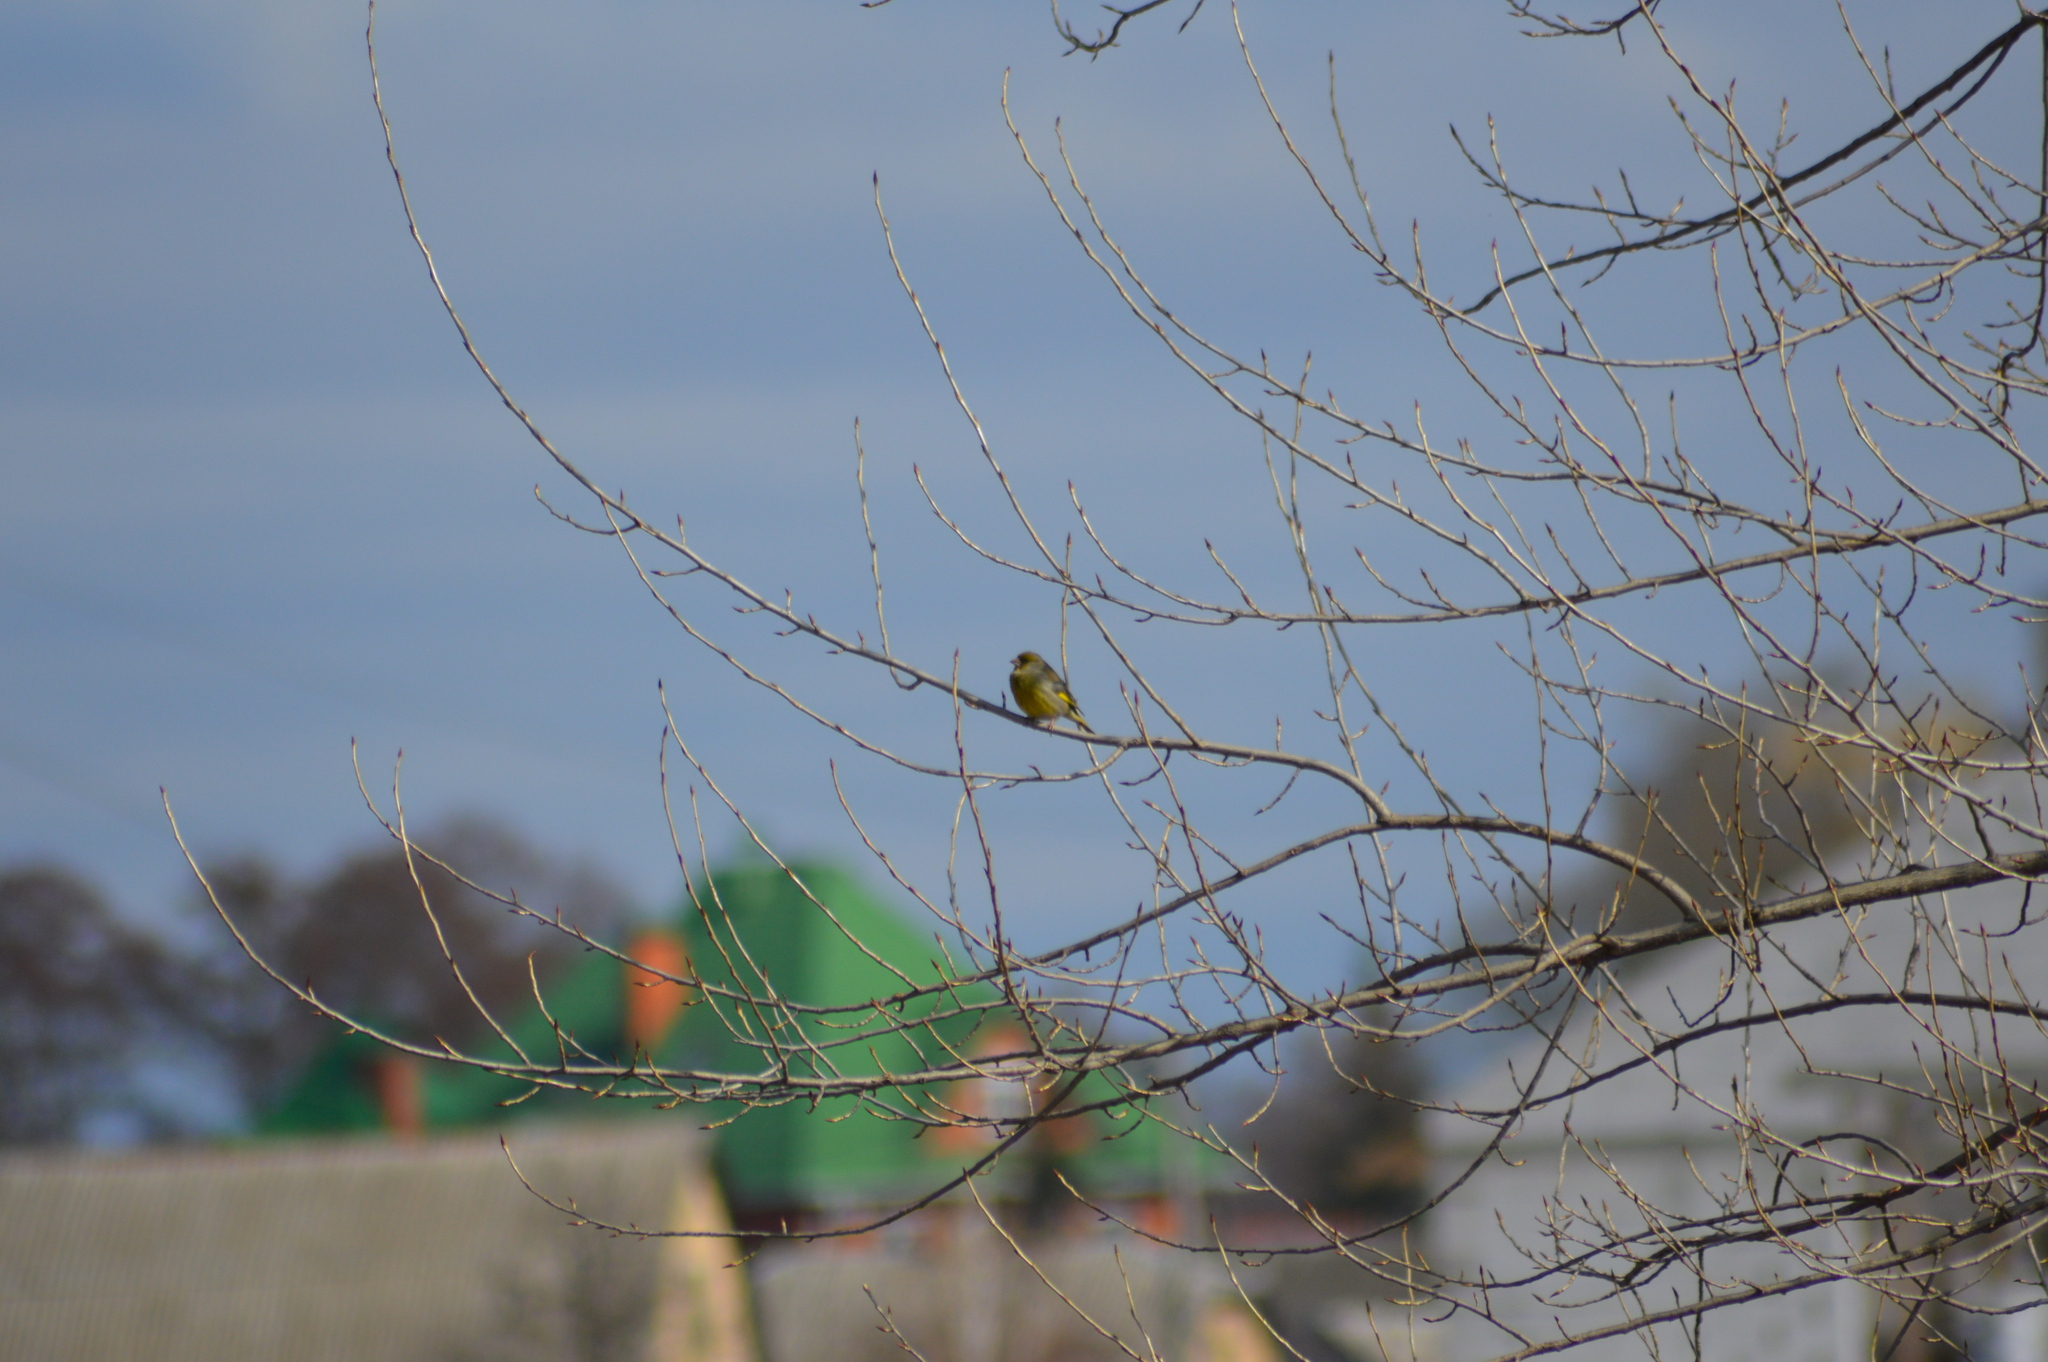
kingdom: Plantae
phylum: Tracheophyta
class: Liliopsida
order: Poales
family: Poaceae
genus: Chloris
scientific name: Chloris chloris
